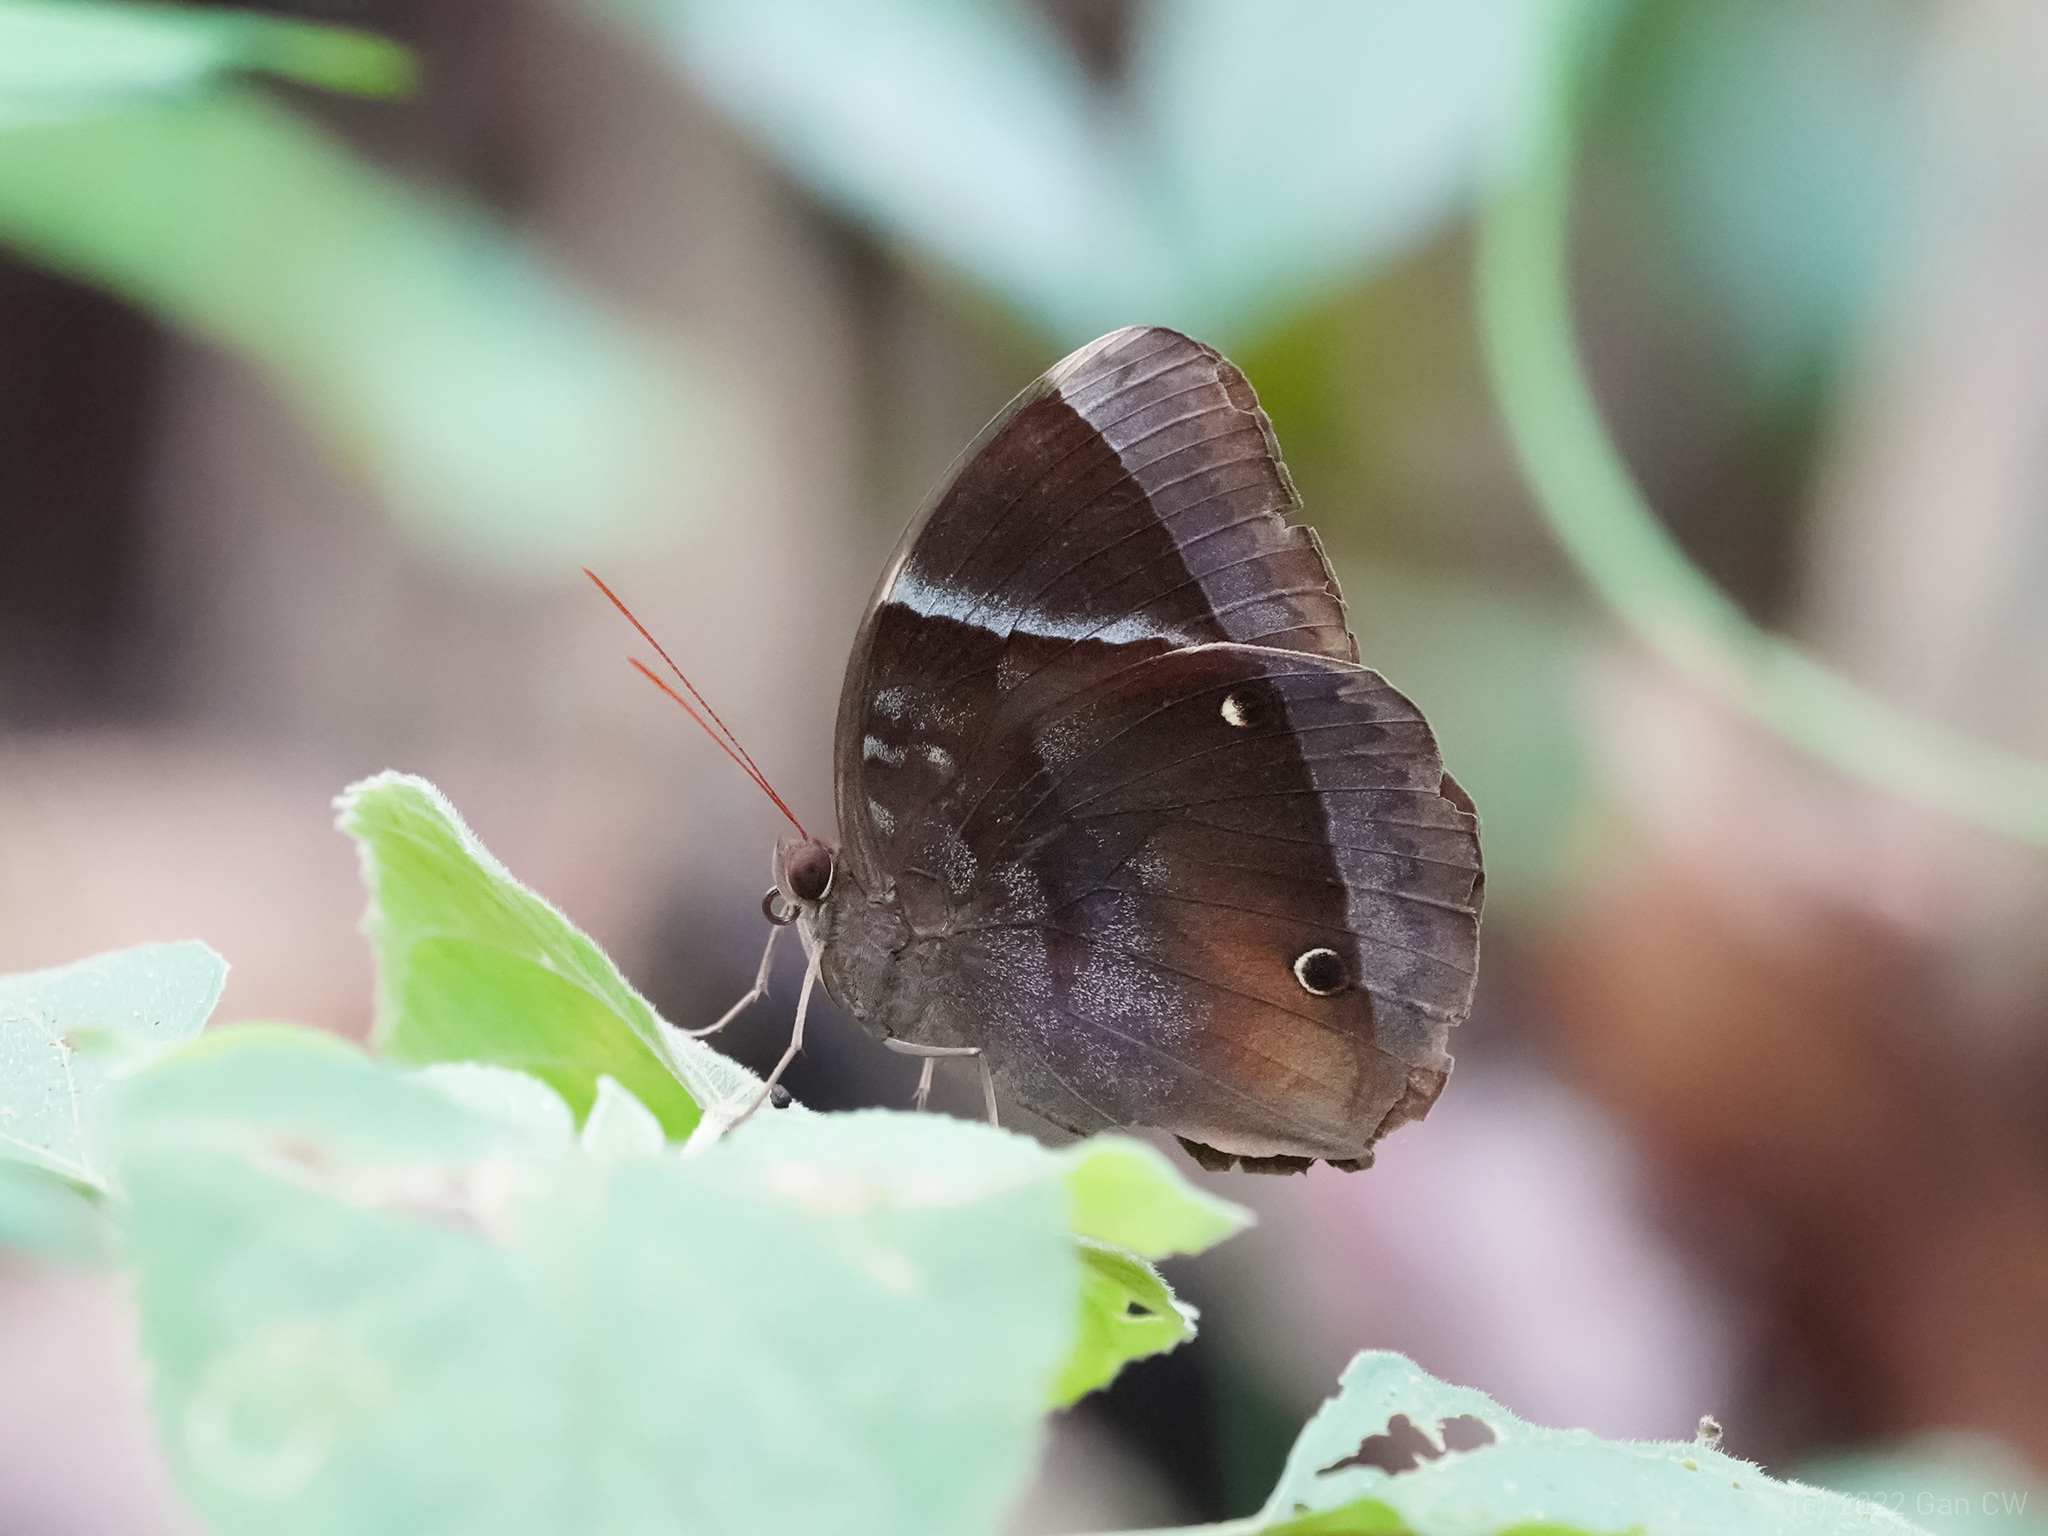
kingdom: Animalia
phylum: Arthropoda
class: Insecta
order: Lepidoptera
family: Nymphalidae
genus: Thaumantis
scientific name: Thaumantis klugius
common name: Dark blue jungle glory
